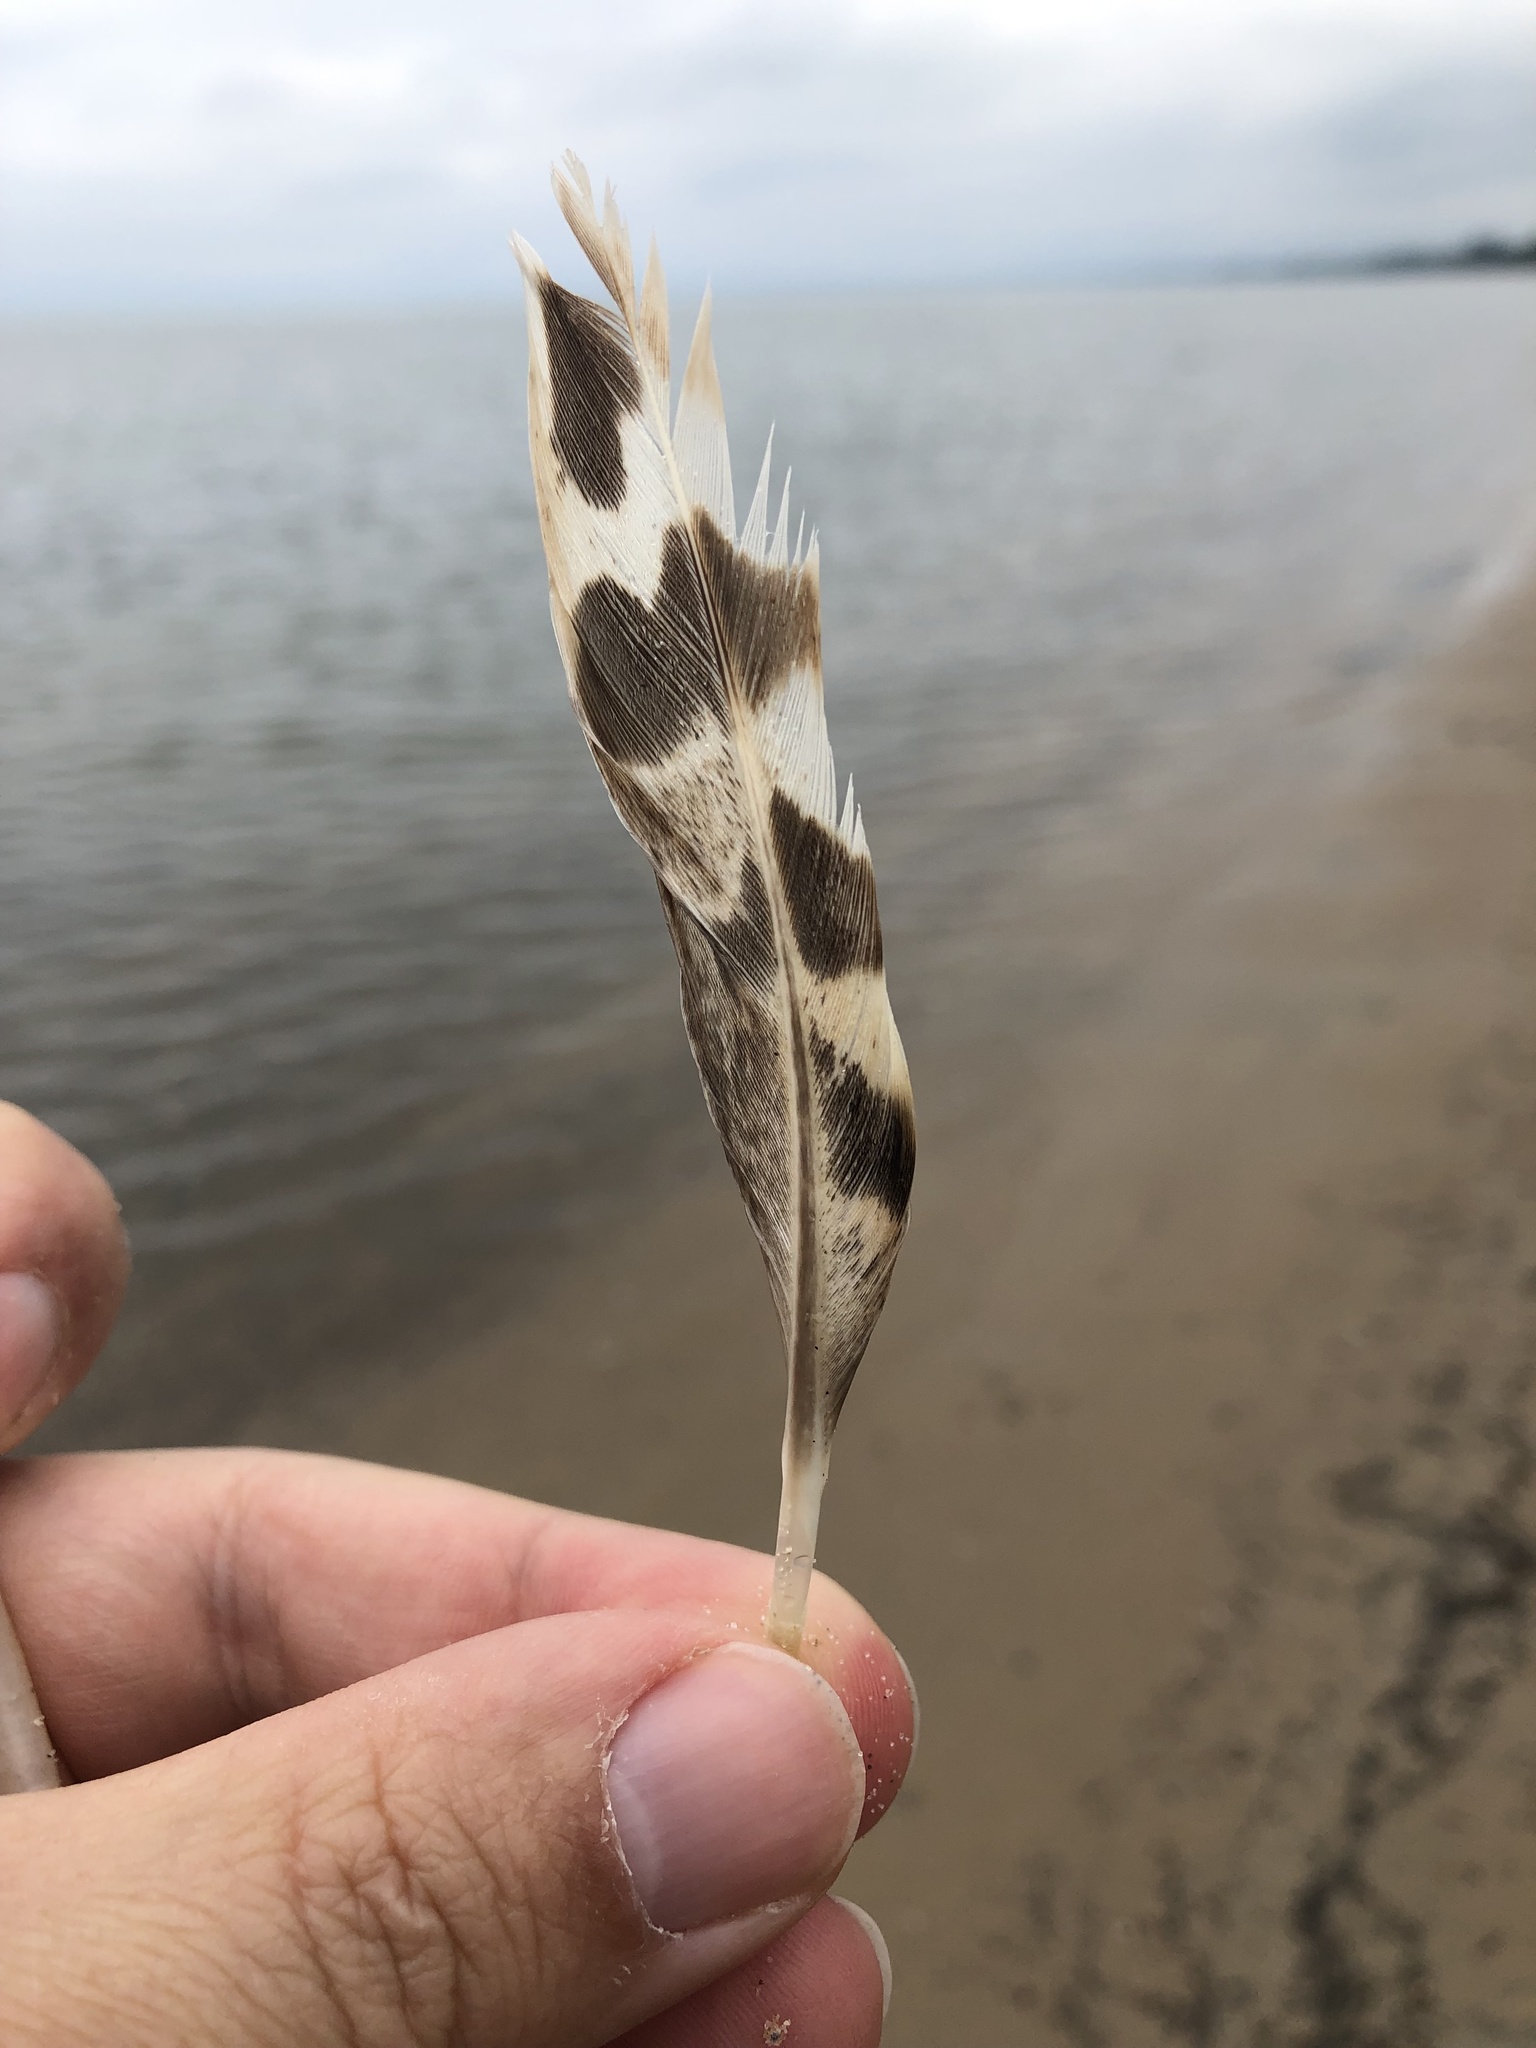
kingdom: Animalia
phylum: Chordata
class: Aves
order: Anseriformes
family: Anatidae
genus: Anas
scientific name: Anas platyrhynchos
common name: Mallard
